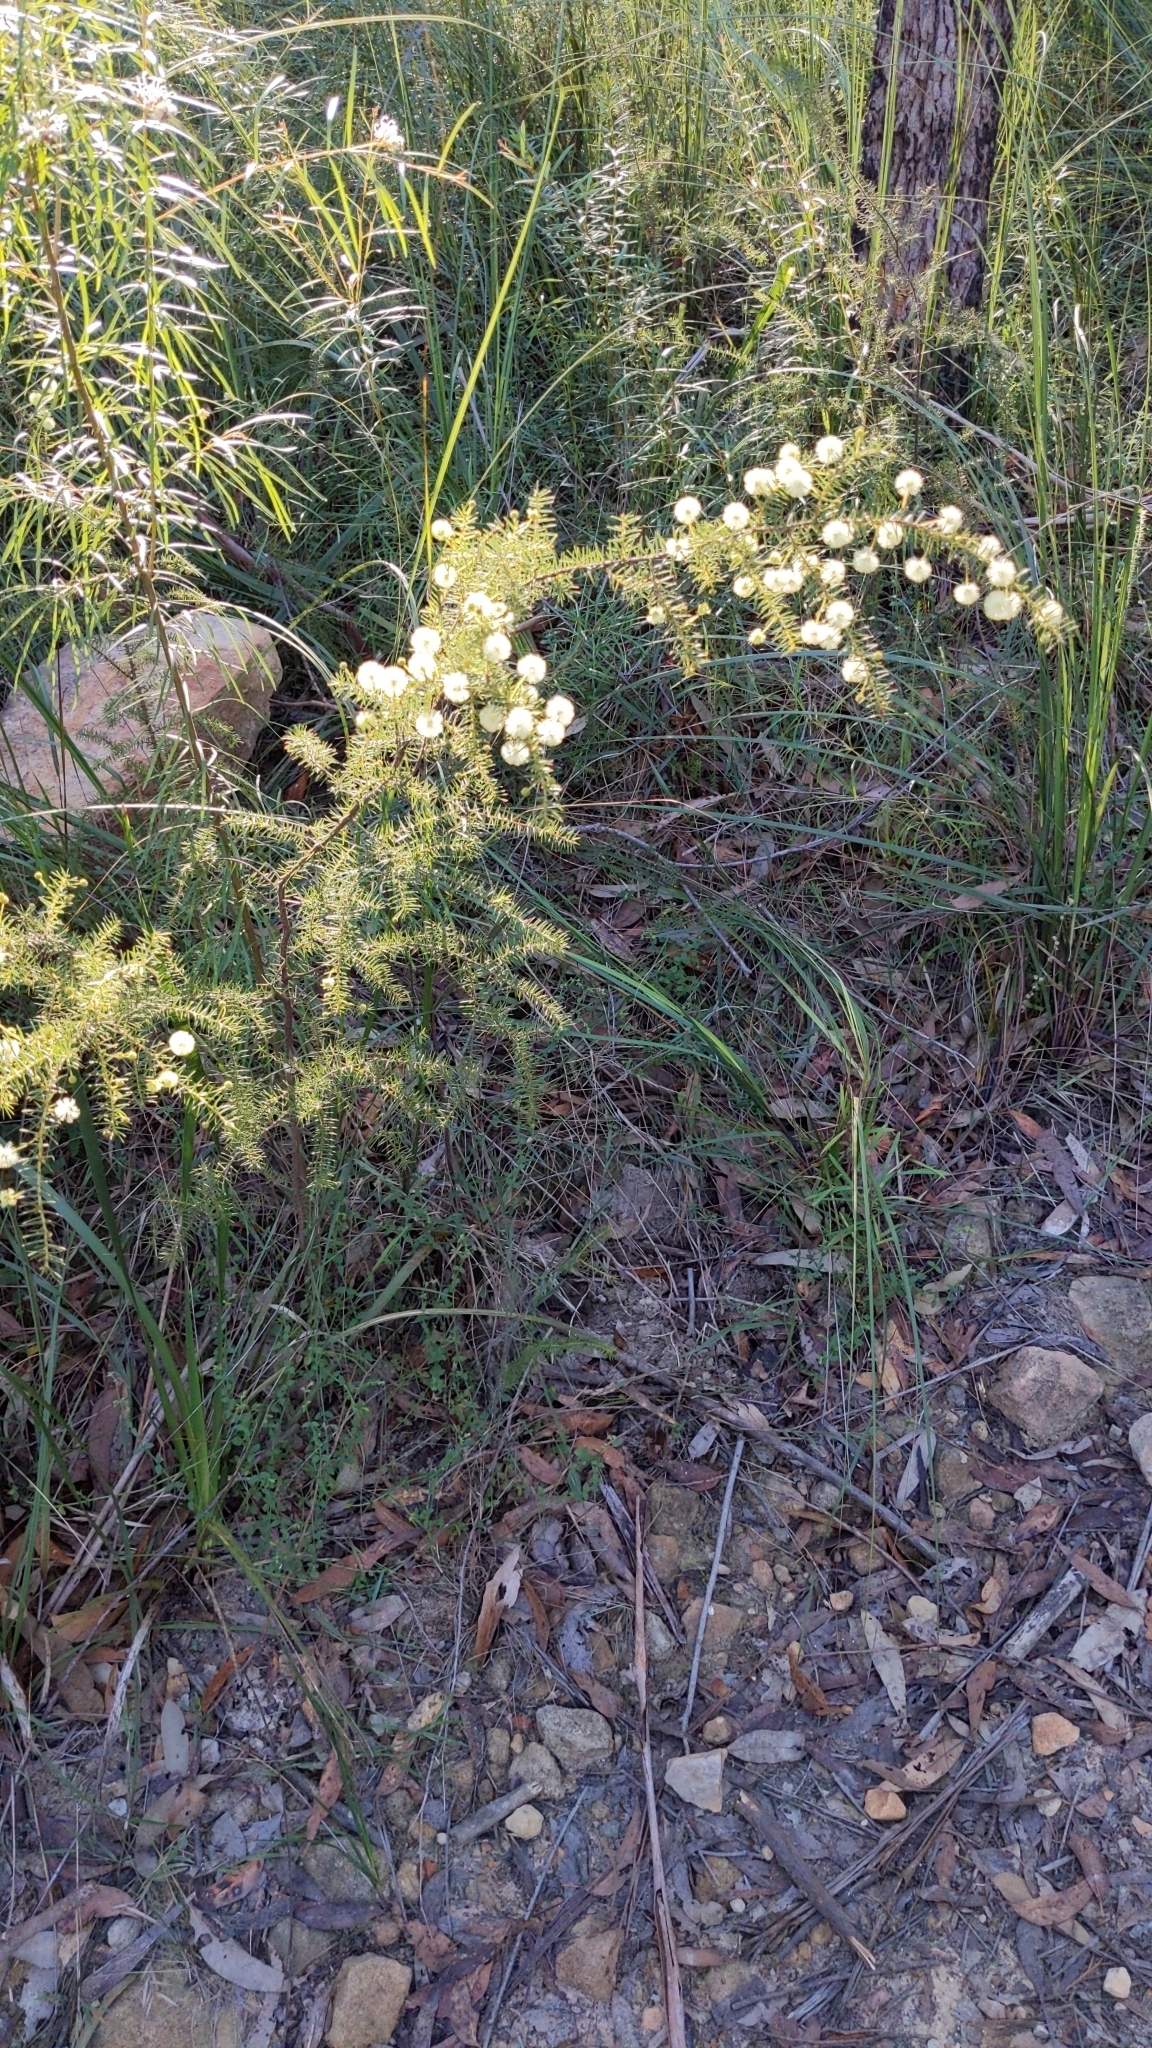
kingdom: Plantae
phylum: Tracheophyta
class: Magnoliopsida
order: Fabales
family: Fabaceae
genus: Acacia
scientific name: Acacia ulicifolia
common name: Juniper wattle
